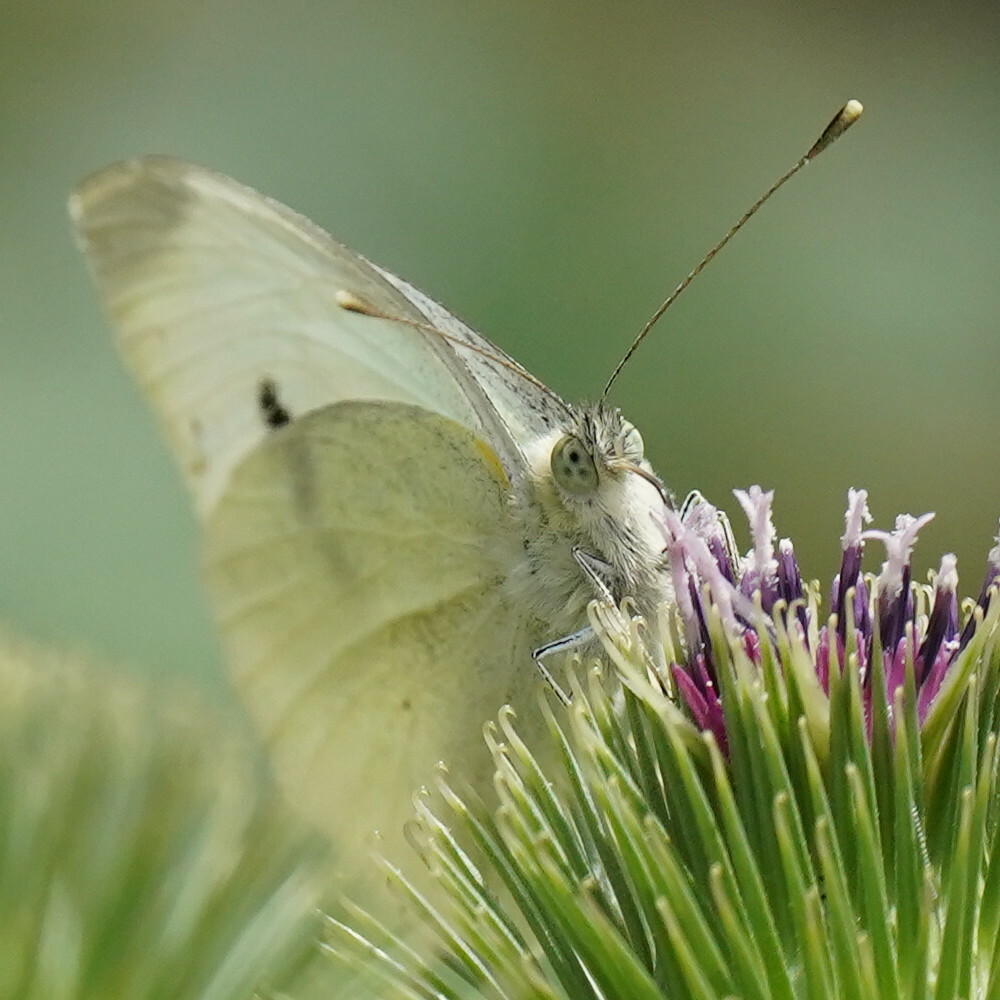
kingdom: Animalia
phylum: Arthropoda
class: Insecta
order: Lepidoptera
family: Pieridae
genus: Pieris
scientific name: Pieris rapae
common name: Small white
